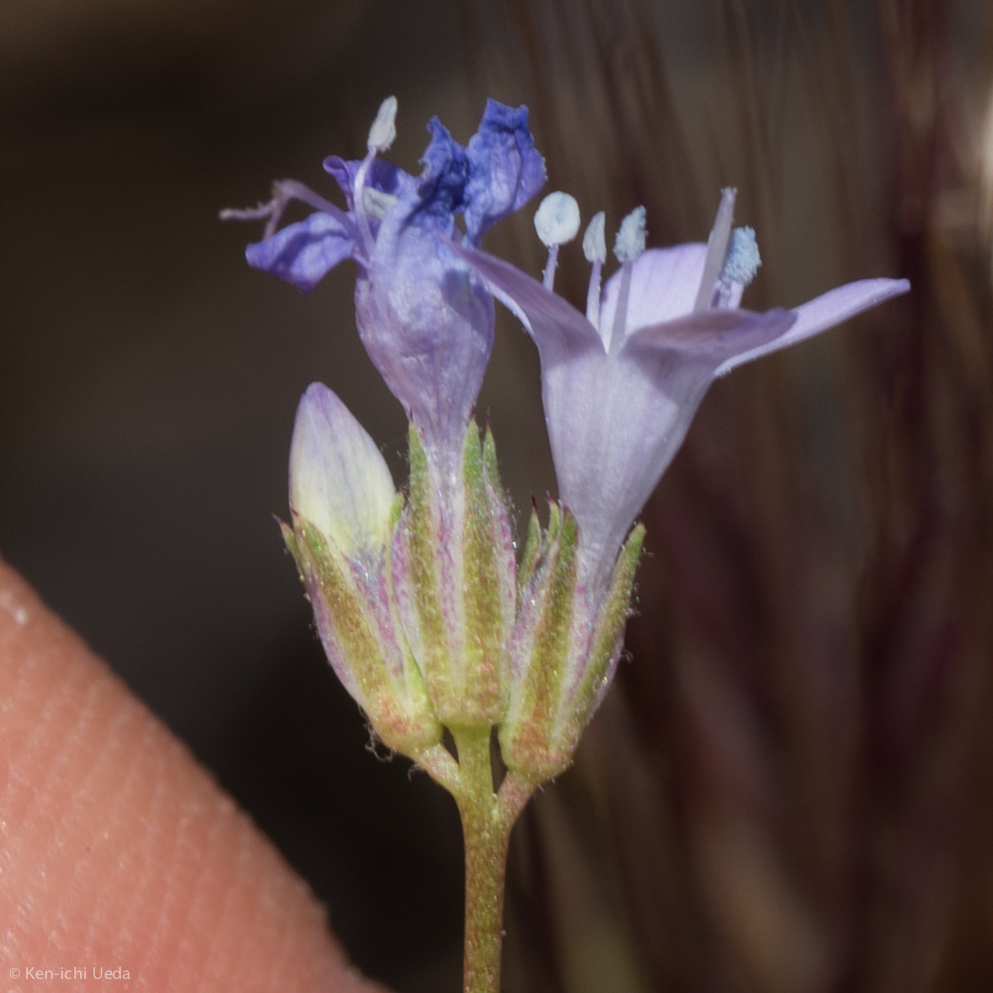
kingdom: Plantae
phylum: Tracheophyta
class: Magnoliopsida
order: Ericales
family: Polemoniaceae
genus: Gilia
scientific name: Gilia achilleifolia
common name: California gily-flower
